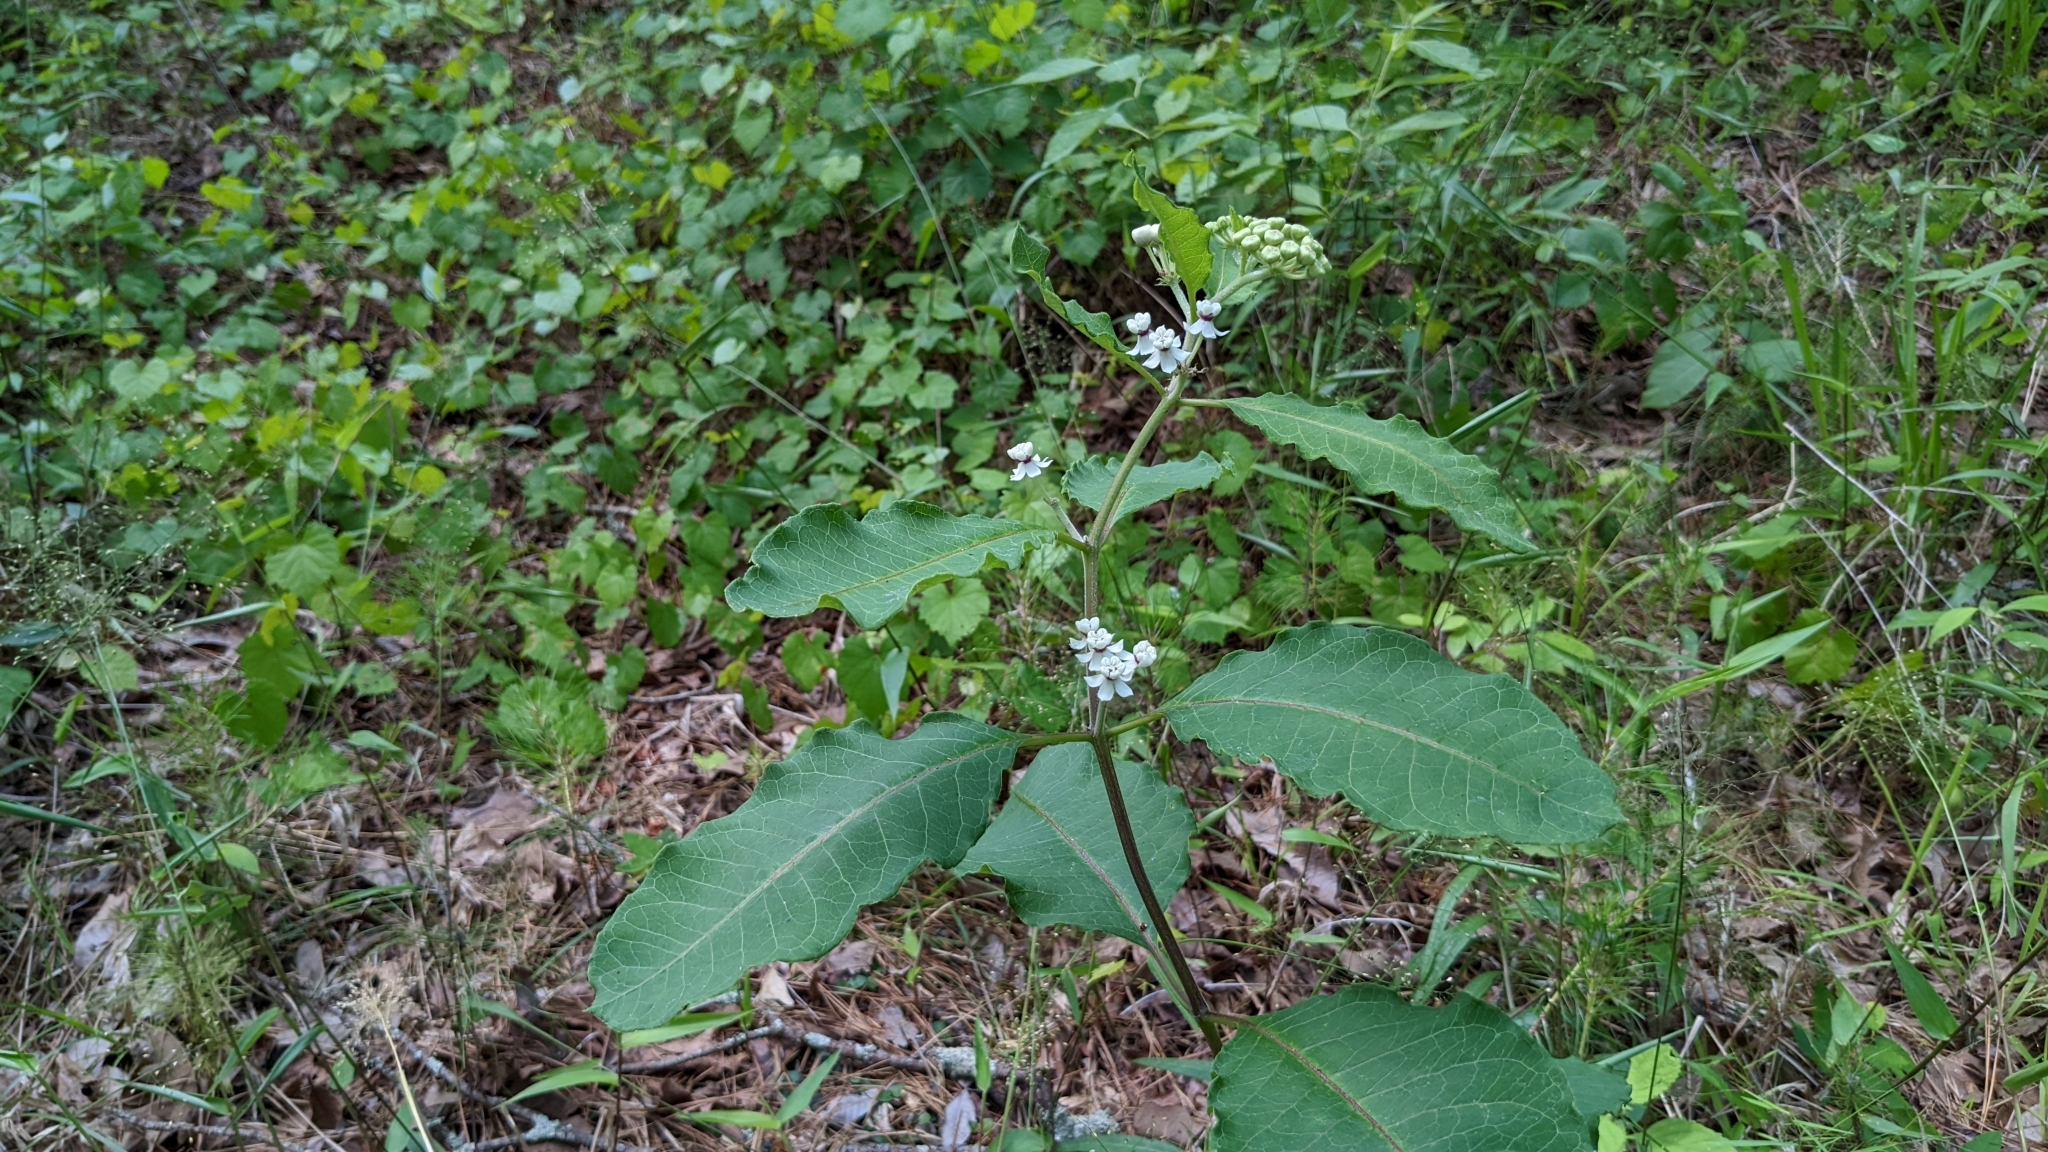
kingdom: Plantae
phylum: Tracheophyta
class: Magnoliopsida
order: Gentianales
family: Apocynaceae
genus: Asclepias
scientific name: Asclepias variegata
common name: Variegated milkweed
